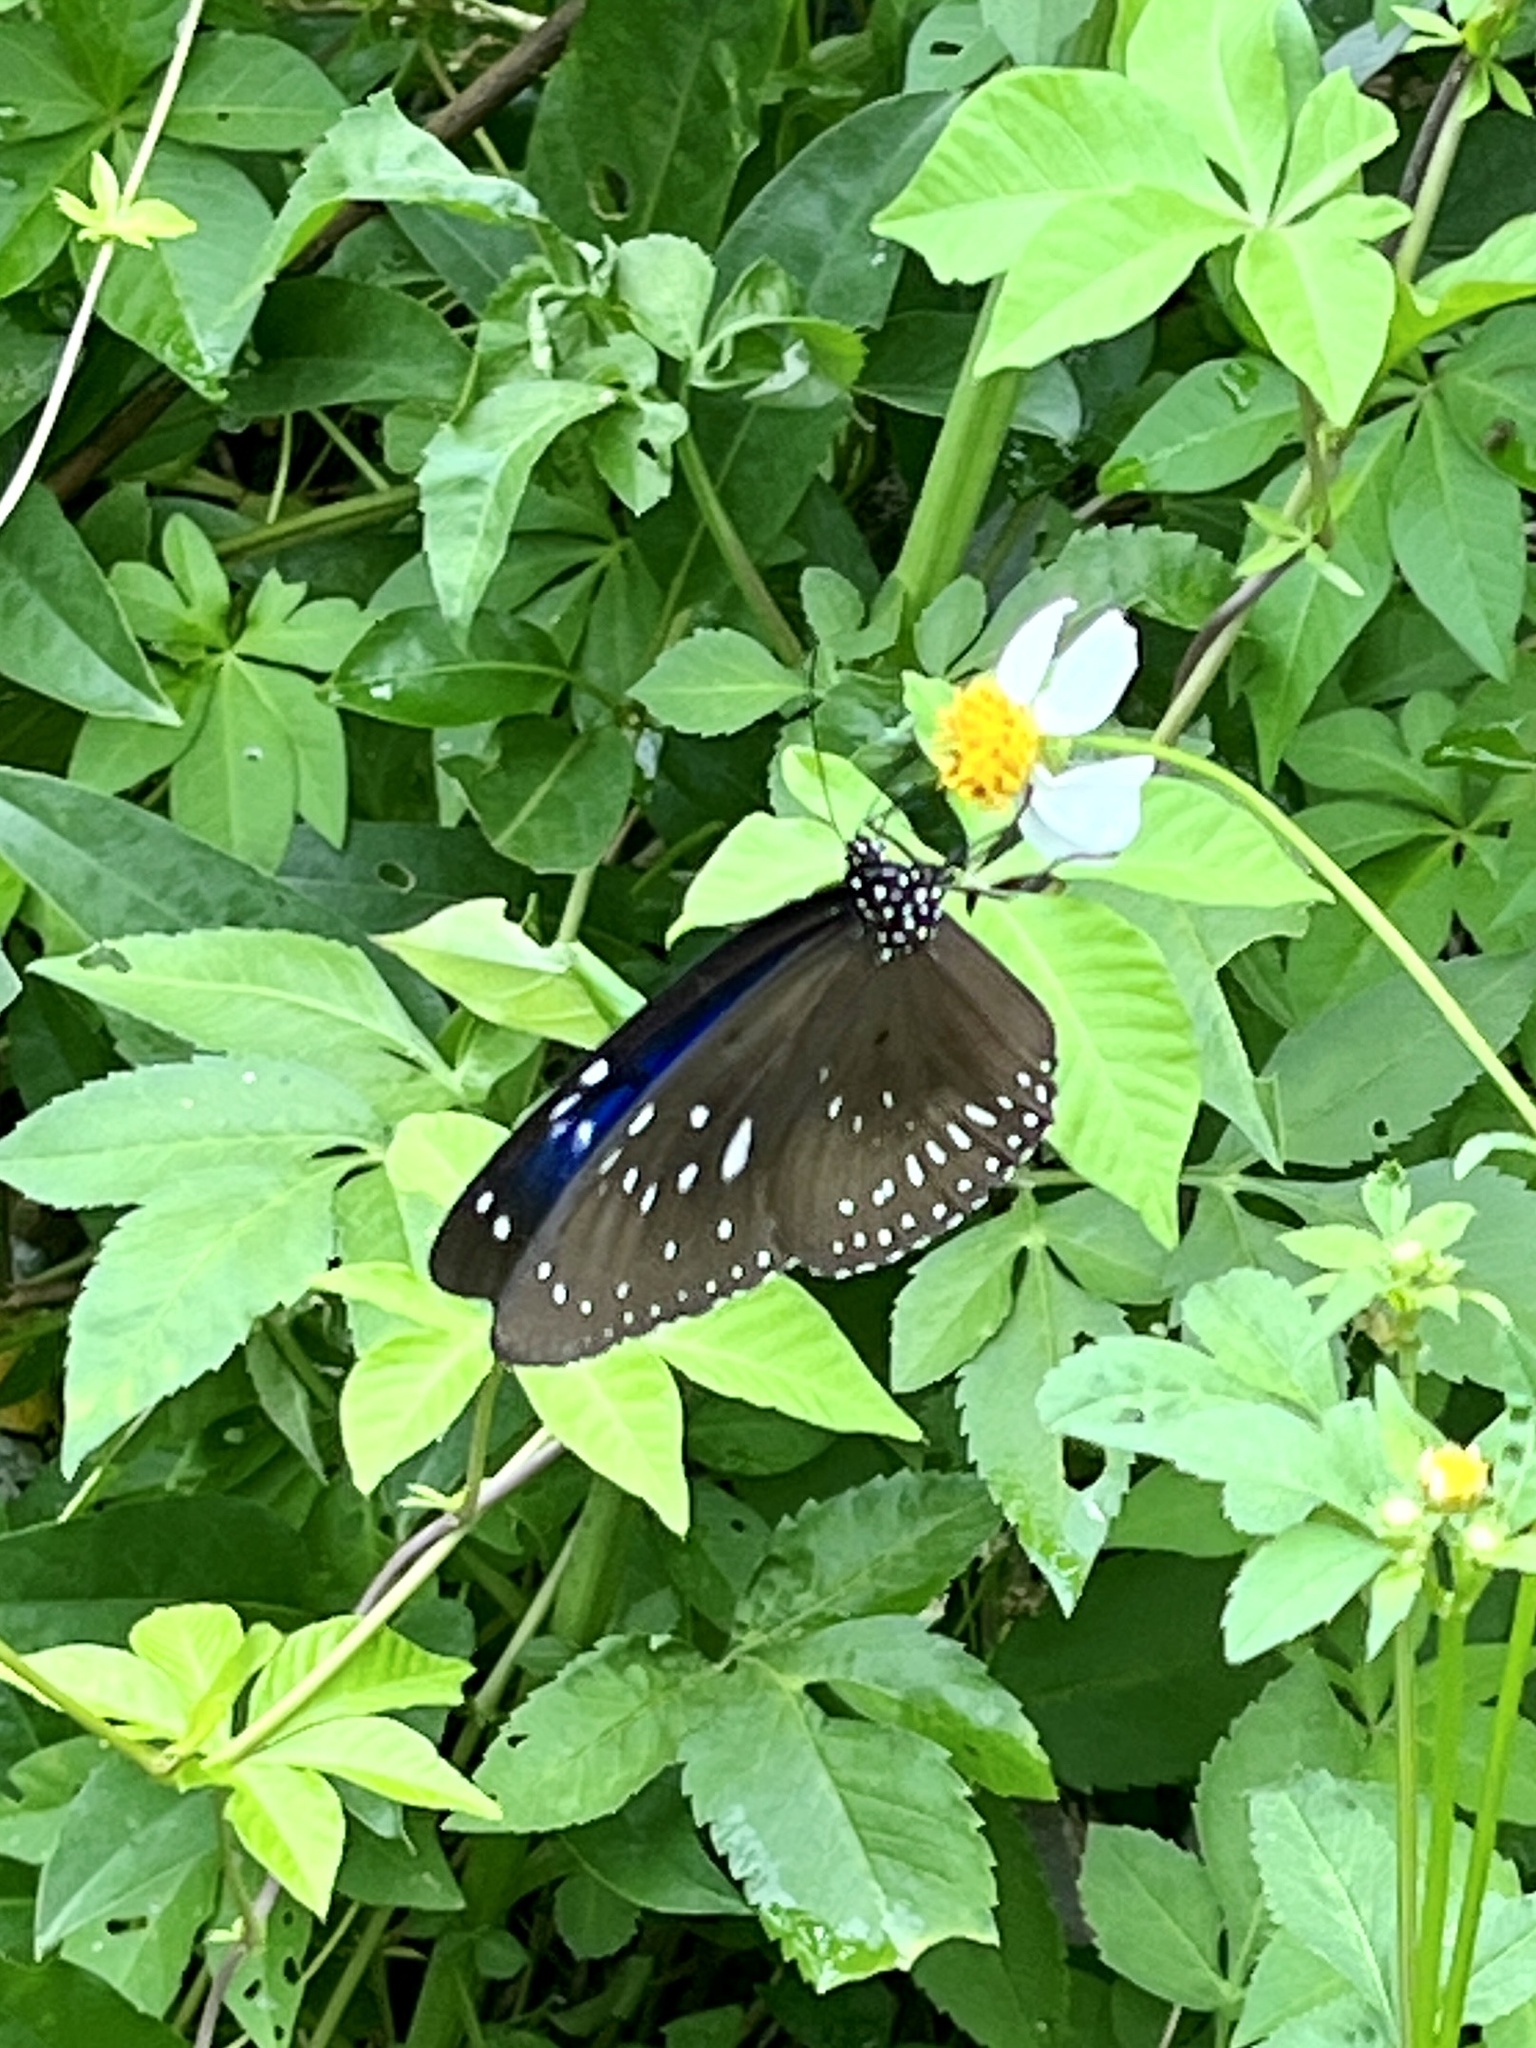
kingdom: Animalia
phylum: Arthropoda
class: Insecta
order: Lepidoptera
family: Nymphalidae
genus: Euploea
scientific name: Euploea midamus
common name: Blue-spotted crow butterfly
